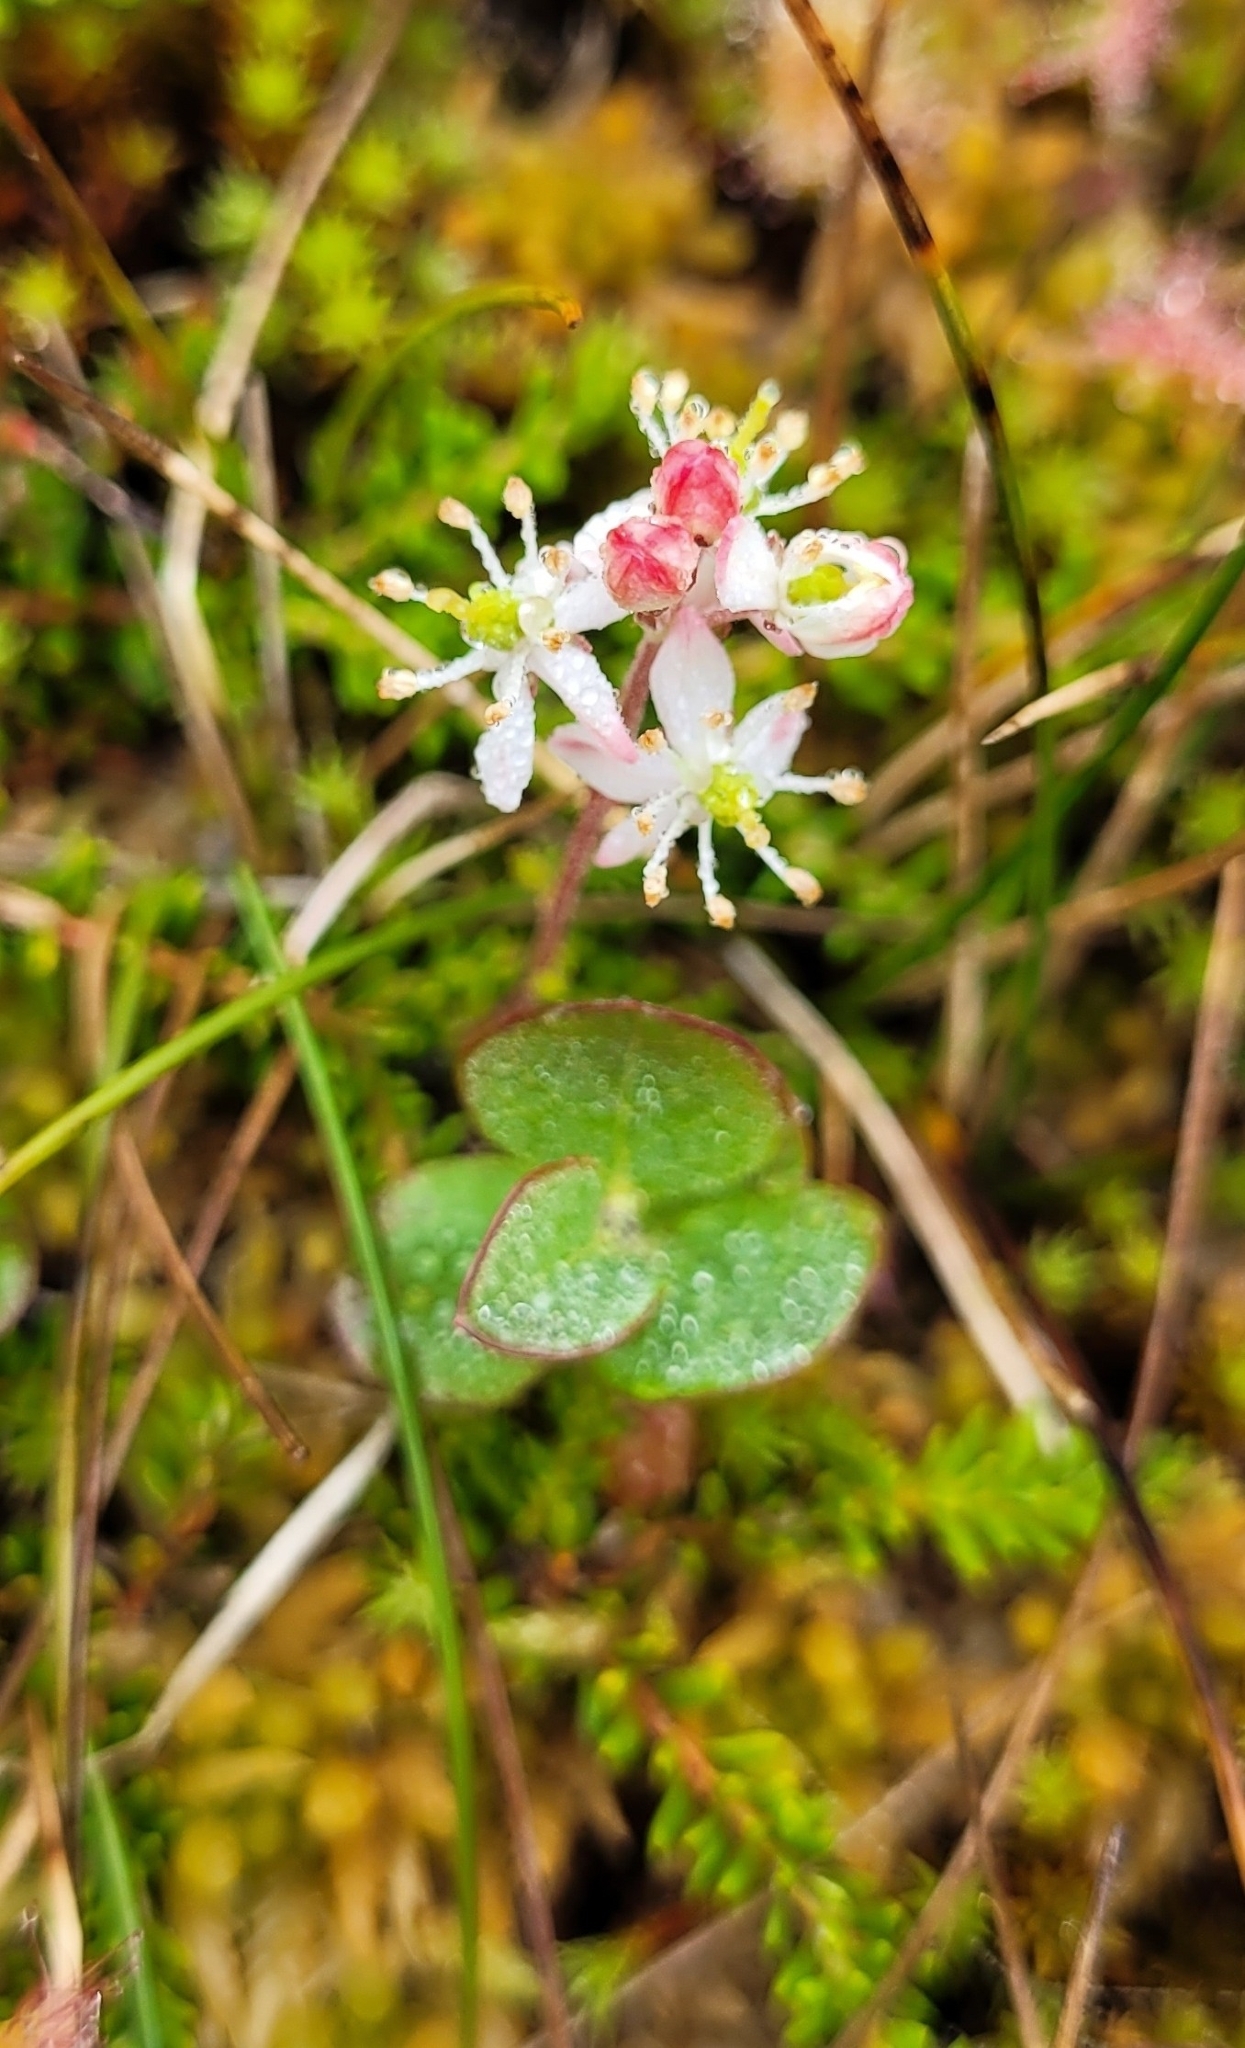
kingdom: Plantae
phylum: Tracheophyta
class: Magnoliopsida
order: Ericales
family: Ericaceae
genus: Bryanthus
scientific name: Bryanthus musciformis
